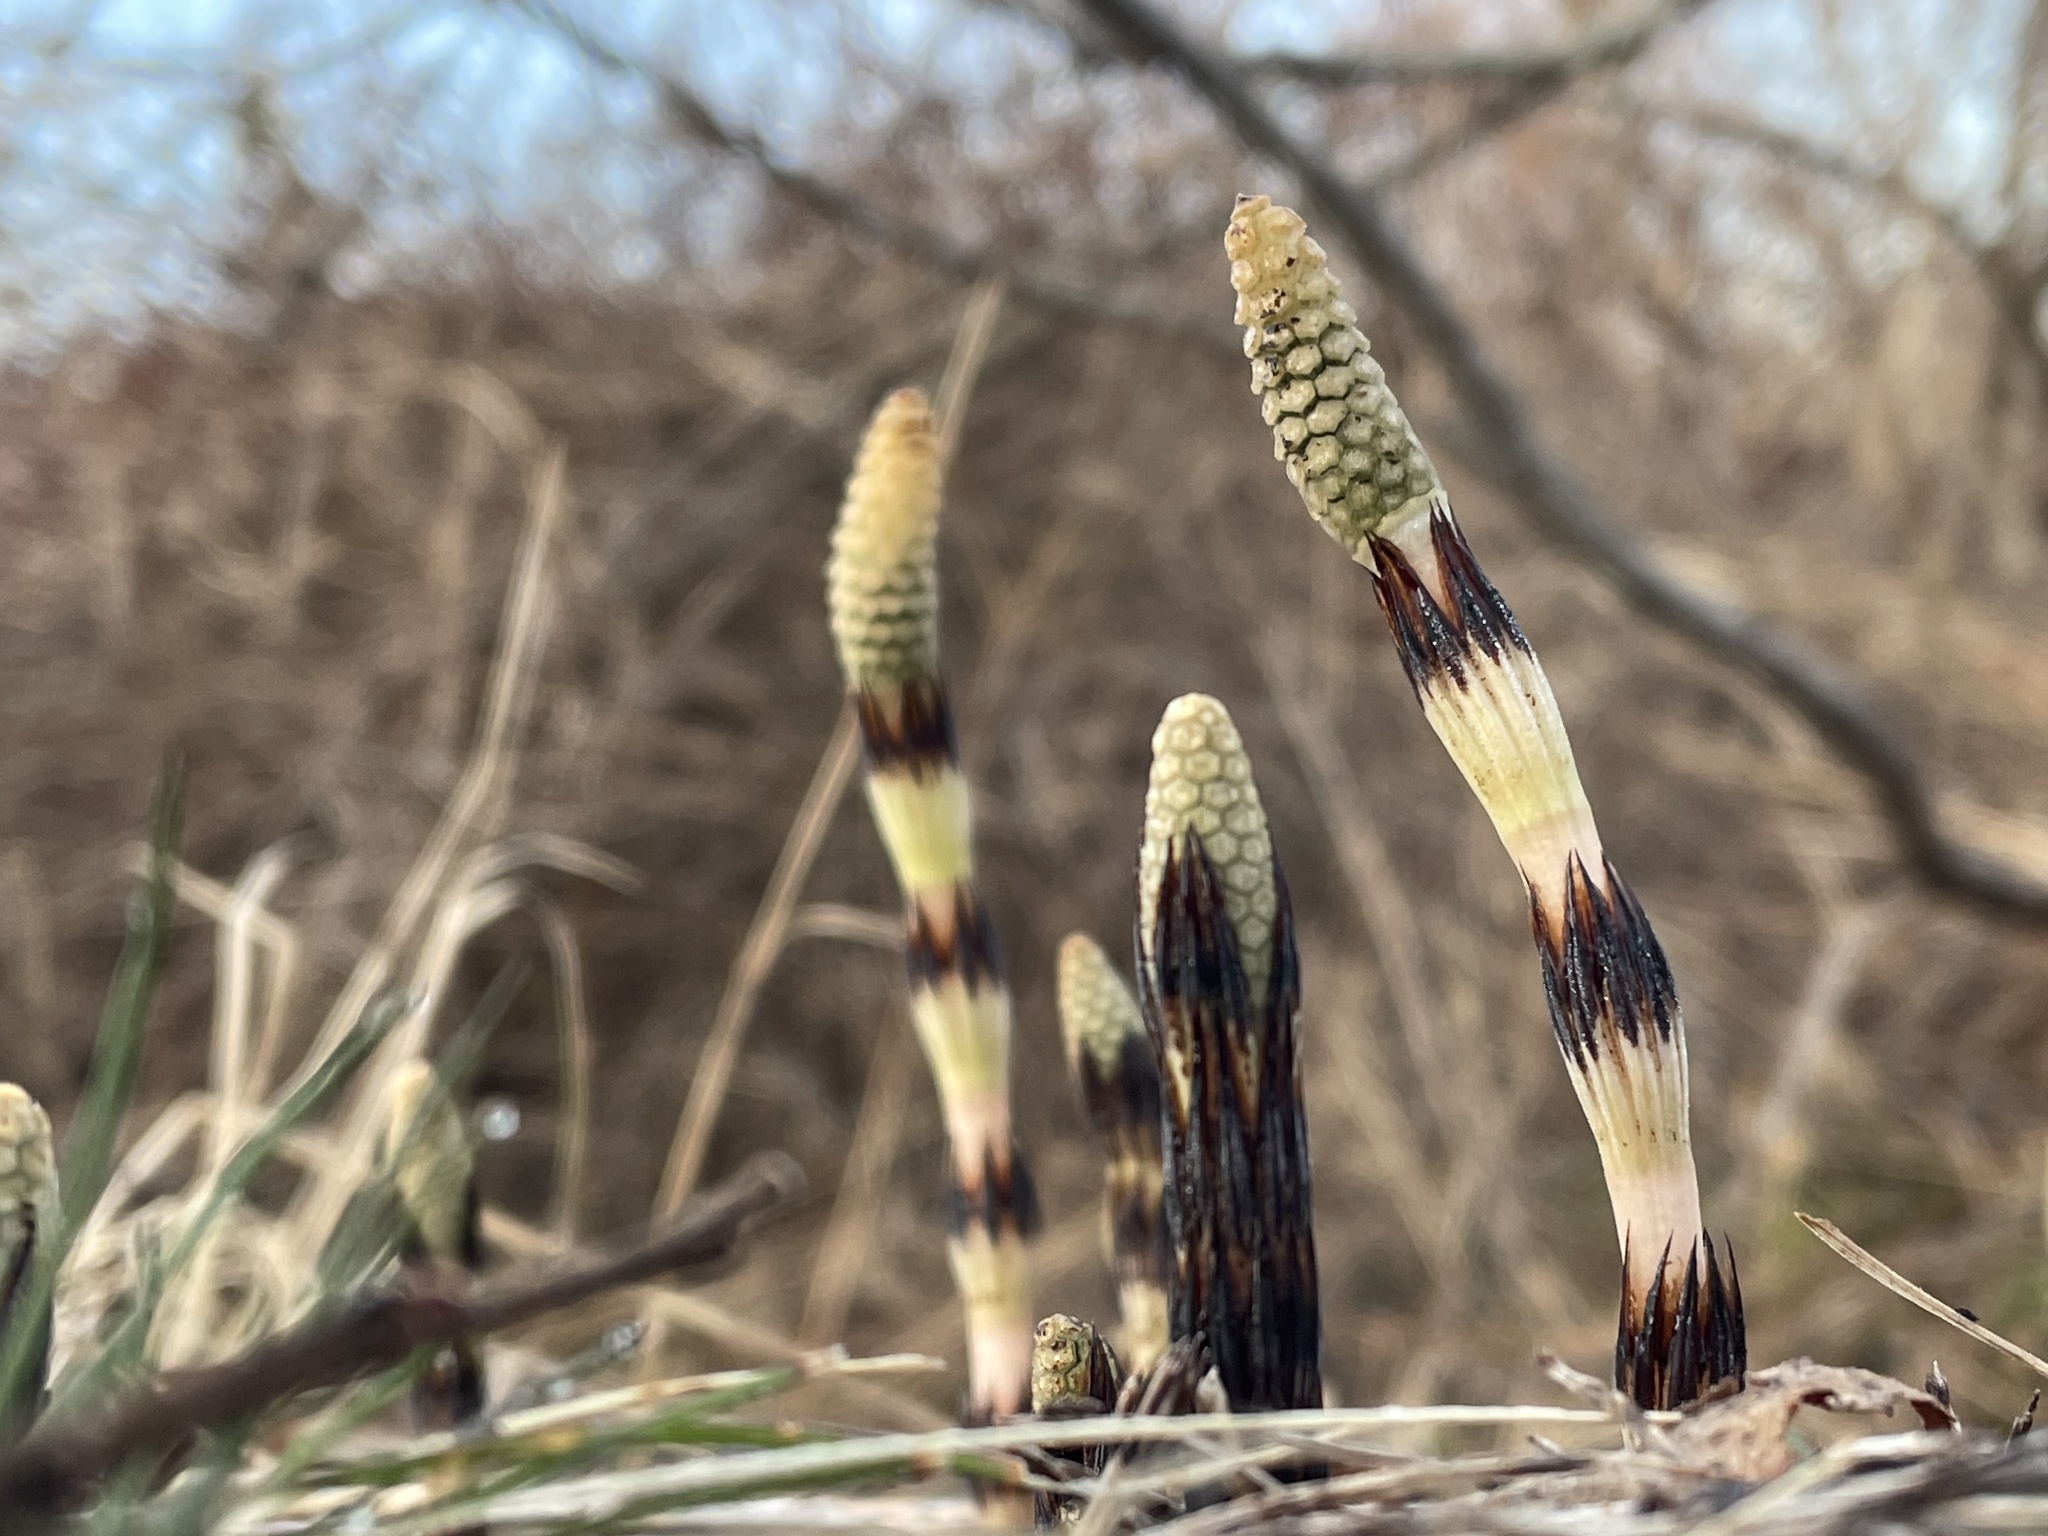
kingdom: Plantae
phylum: Tracheophyta
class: Polypodiopsida
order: Equisetales
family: Equisetaceae
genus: Equisetum
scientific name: Equisetum arvense
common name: Field horsetail
